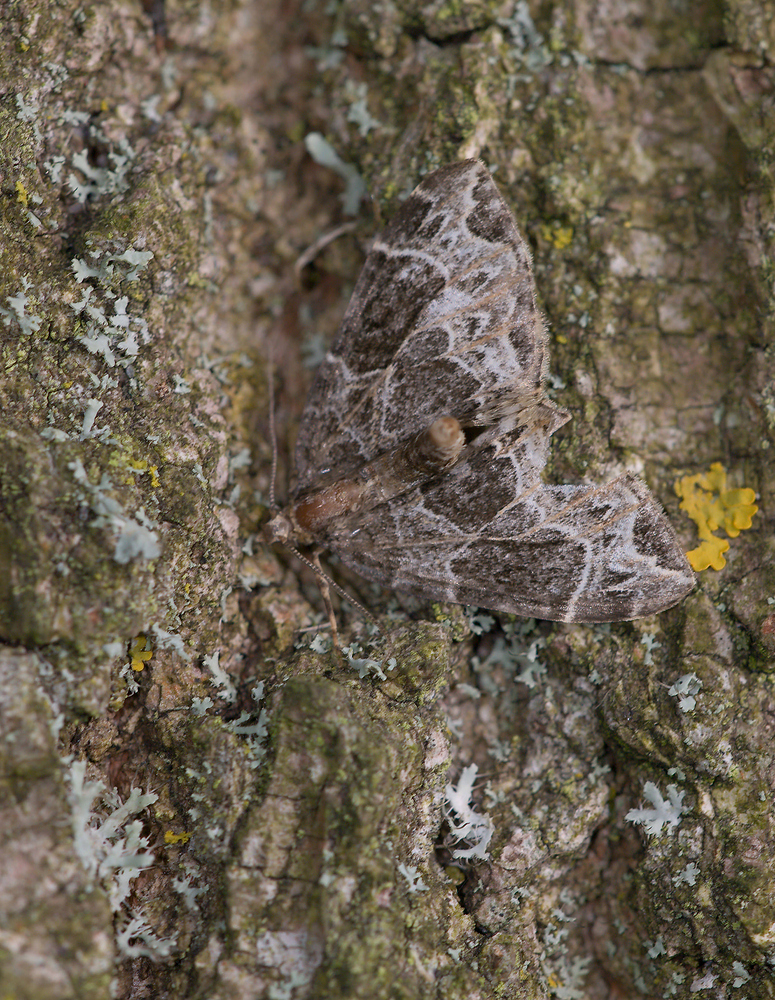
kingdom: Animalia
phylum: Arthropoda
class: Insecta
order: Lepidoptera
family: Geometridae
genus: Ecliptopera
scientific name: Ecliptopera silaceata
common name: Small phoenix
